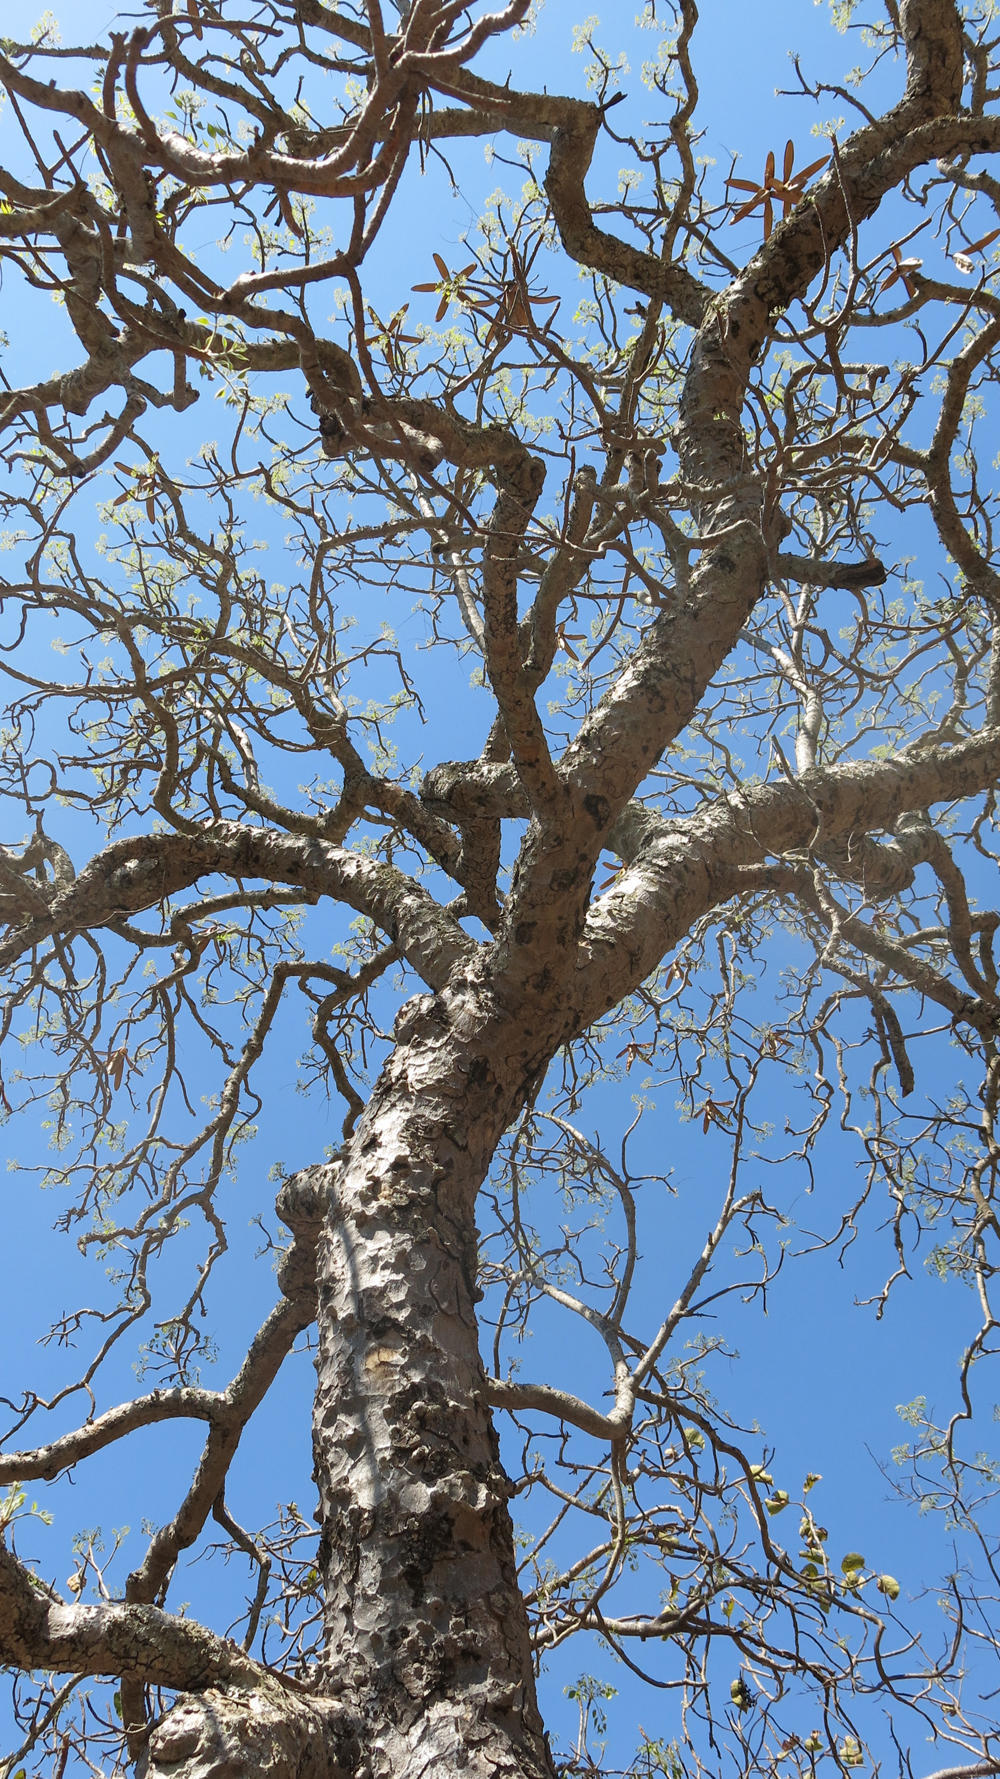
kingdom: Plantae
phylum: Tracheophyta
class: Magnoliopsida
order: Sapindales
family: Meliaceae
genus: Entandrophragma
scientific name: Entandrophragma caudatum
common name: Mountain-mahogany
